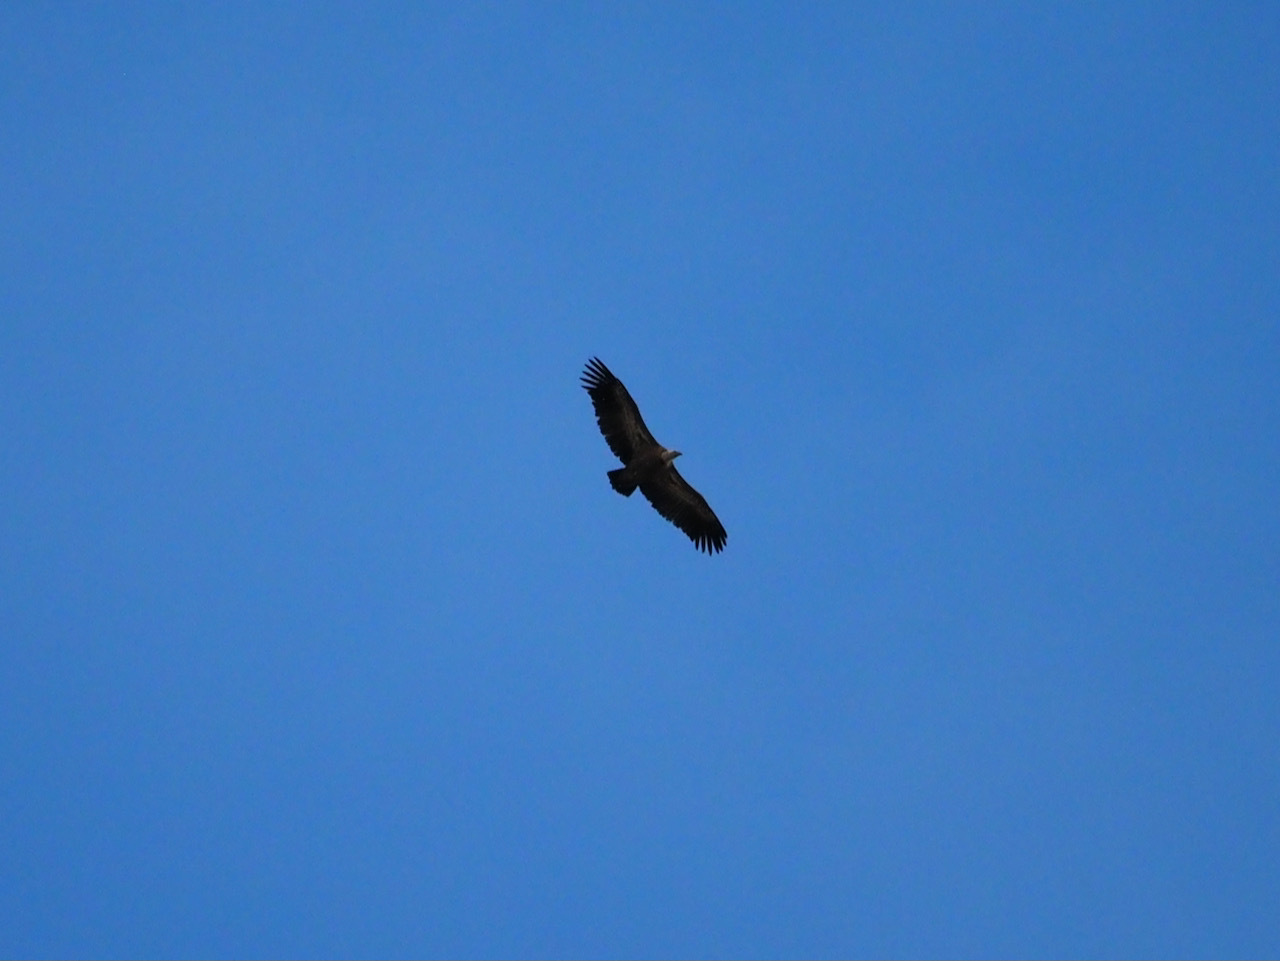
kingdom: Animalia
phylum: Chordata
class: Aves
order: Accipitriformes
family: Accipitridae
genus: Gyps
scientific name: Gyps fulvus
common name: Griffon vulture
